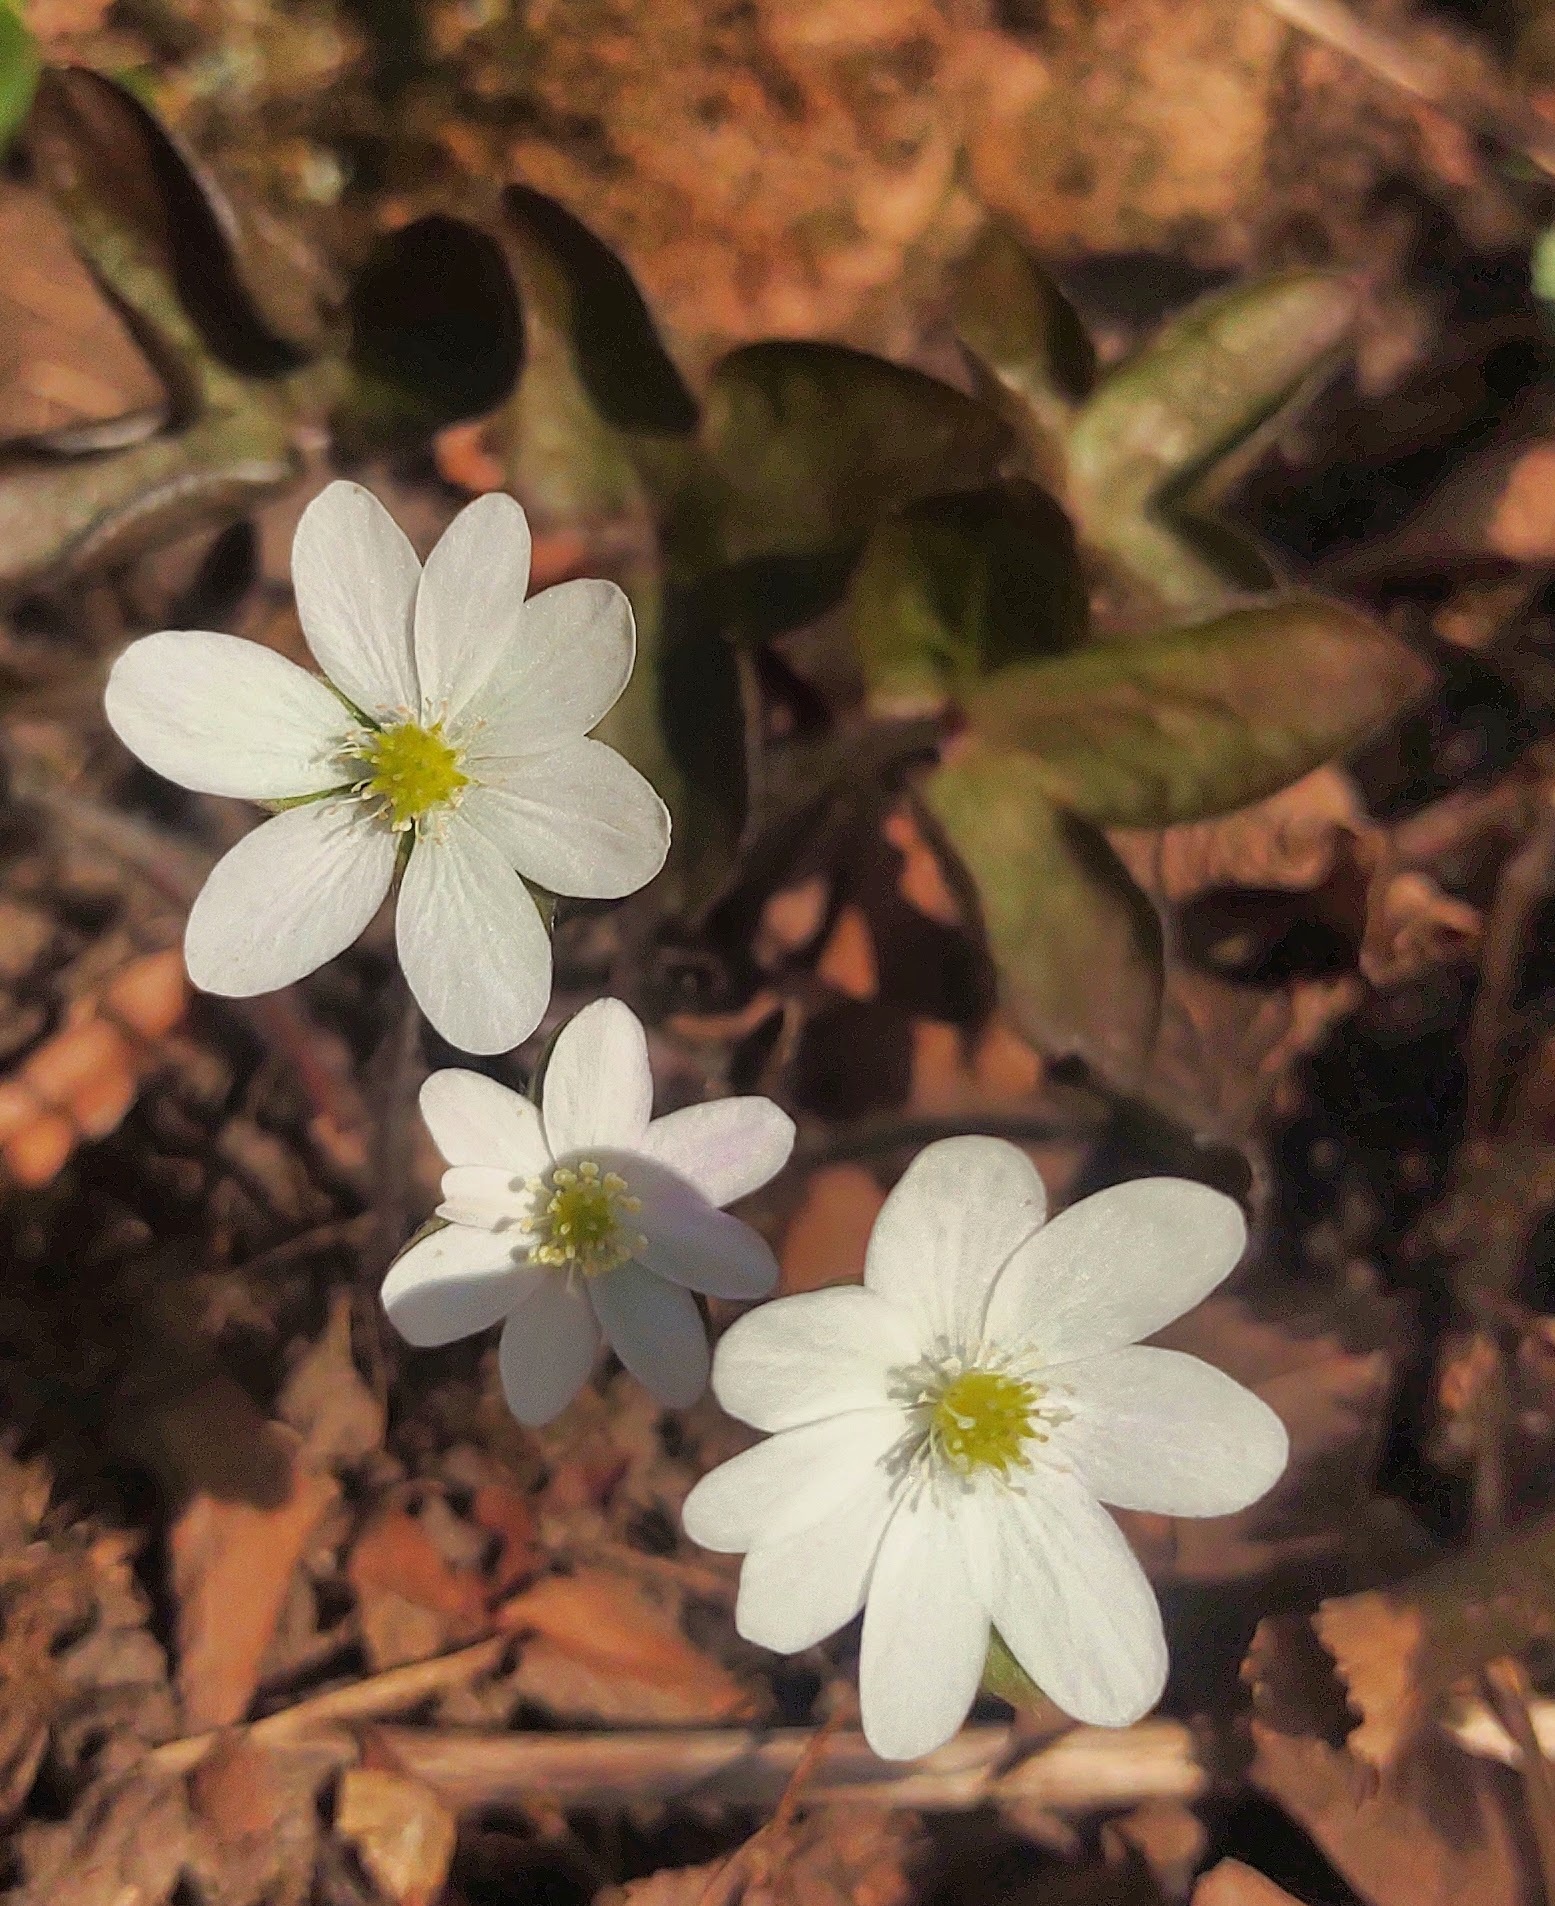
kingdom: Plantae
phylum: Tracheophyta
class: Magnoliopsida
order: Ranunculales
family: Ranunculaceae
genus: Hepatica
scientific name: Hepatica acutiloba
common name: Sharp-lobed hepatica
